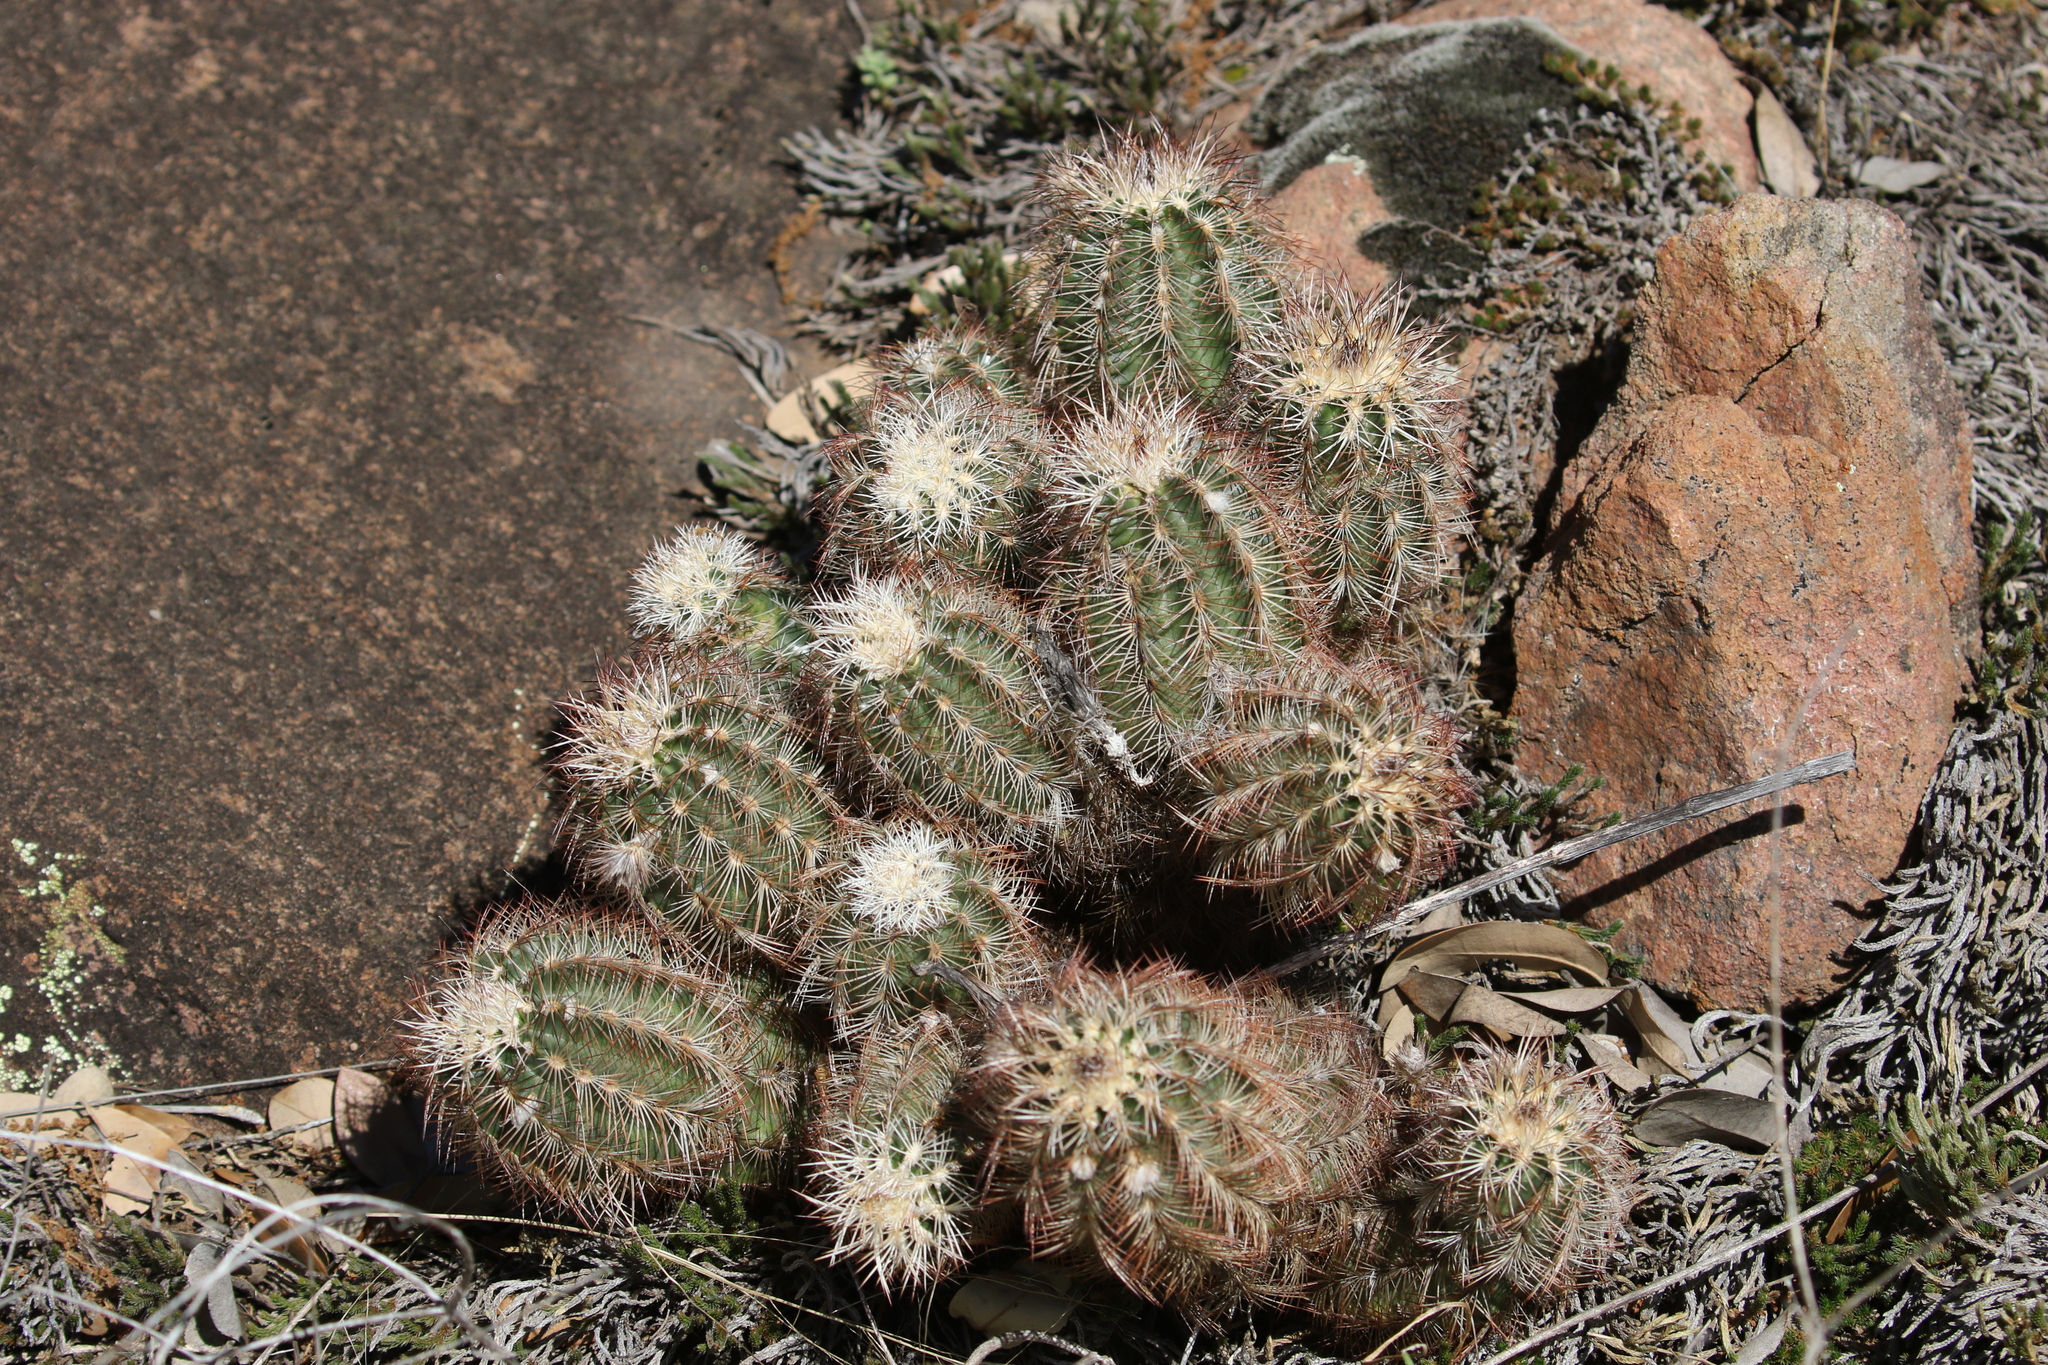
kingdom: Plantae
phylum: Tracheophyta
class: Magnoliopsida
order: Caryophyllales
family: Cactaceae
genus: Echinocereus
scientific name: Echinocereus reichenbachii
